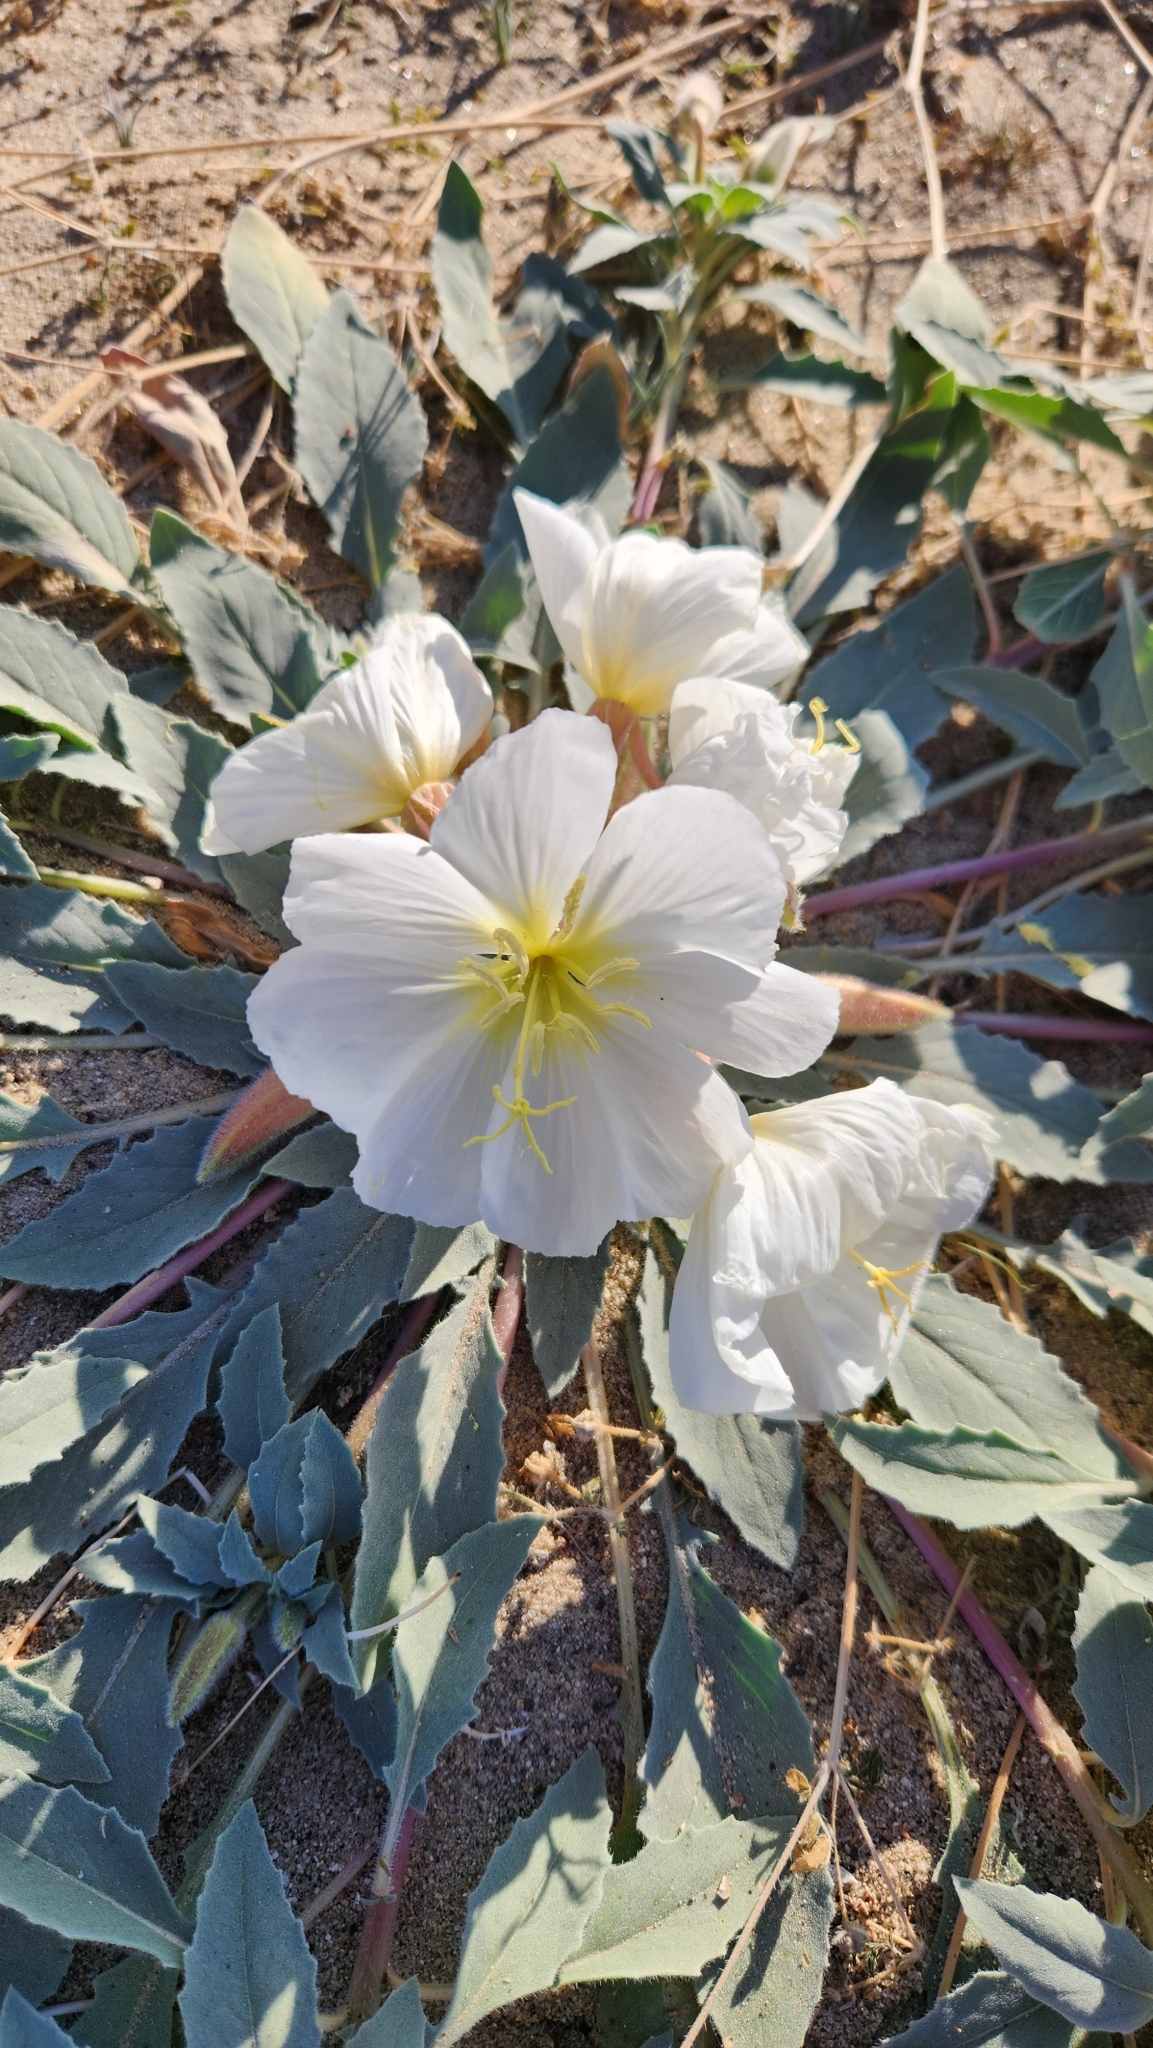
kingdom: Plantae
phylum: Tracheophyta
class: Magnoliopsida
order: Myrtales
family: Onagraceae
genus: Oenothera
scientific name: Oenothera deltoides
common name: Basket evening-primrose
